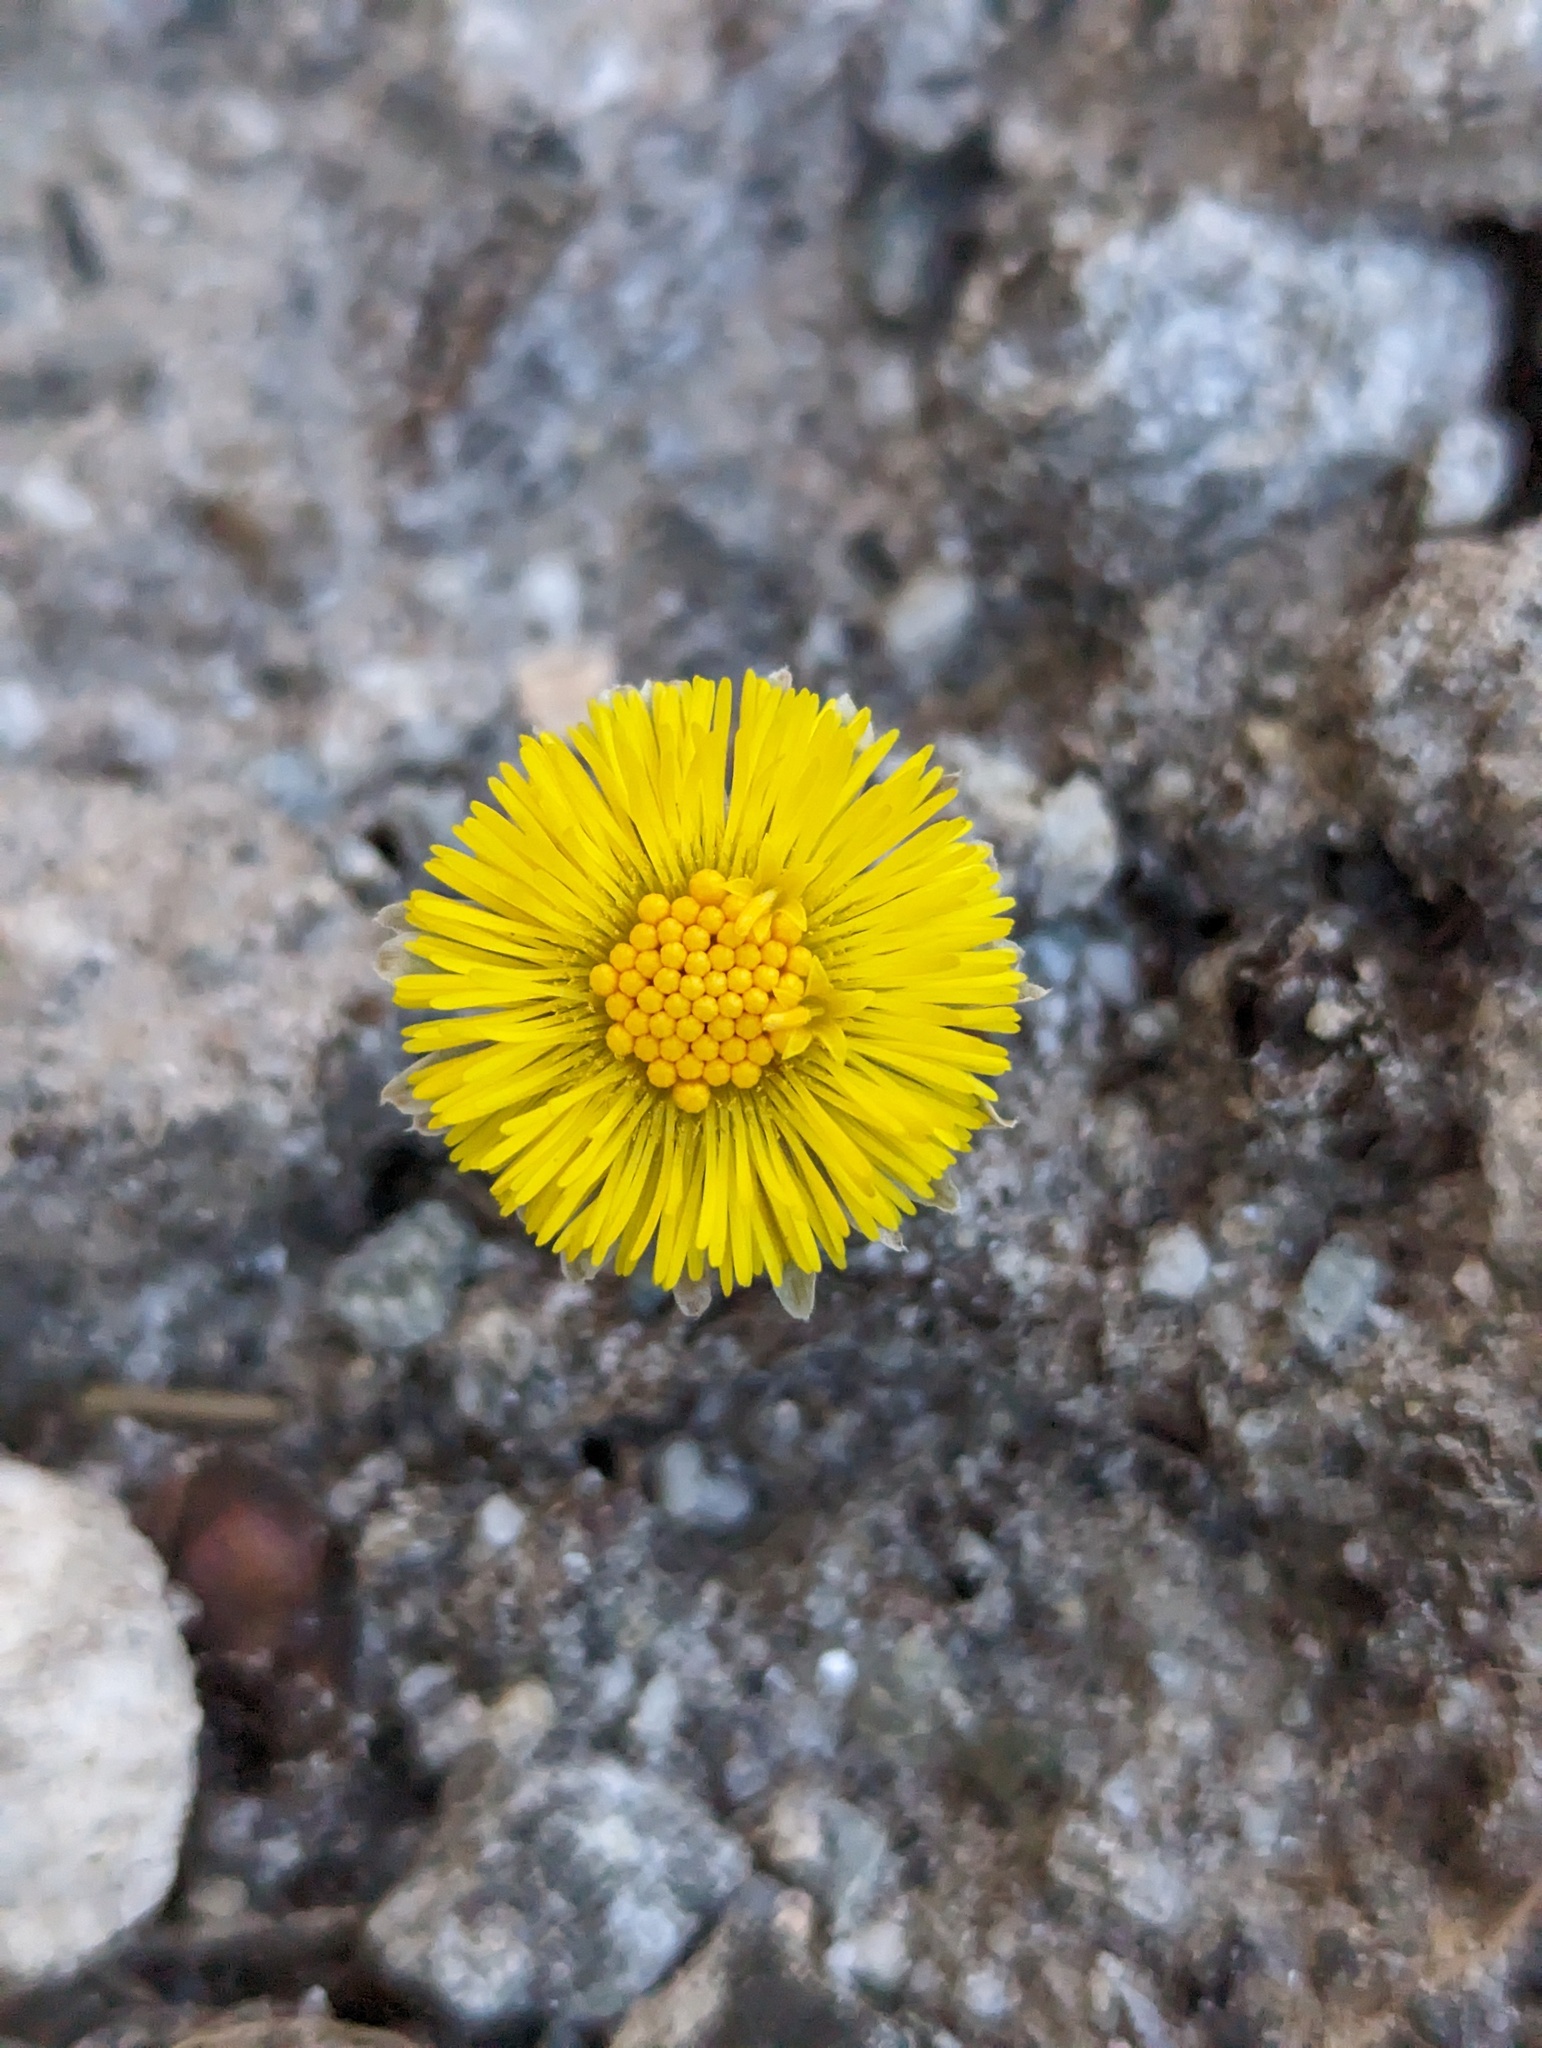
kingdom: Plantae
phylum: Tracheophyta
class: Magnoliopsida
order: Asterales
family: Asteraceae
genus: Tussilago
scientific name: Tussilago farfara
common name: Coltsfoot
